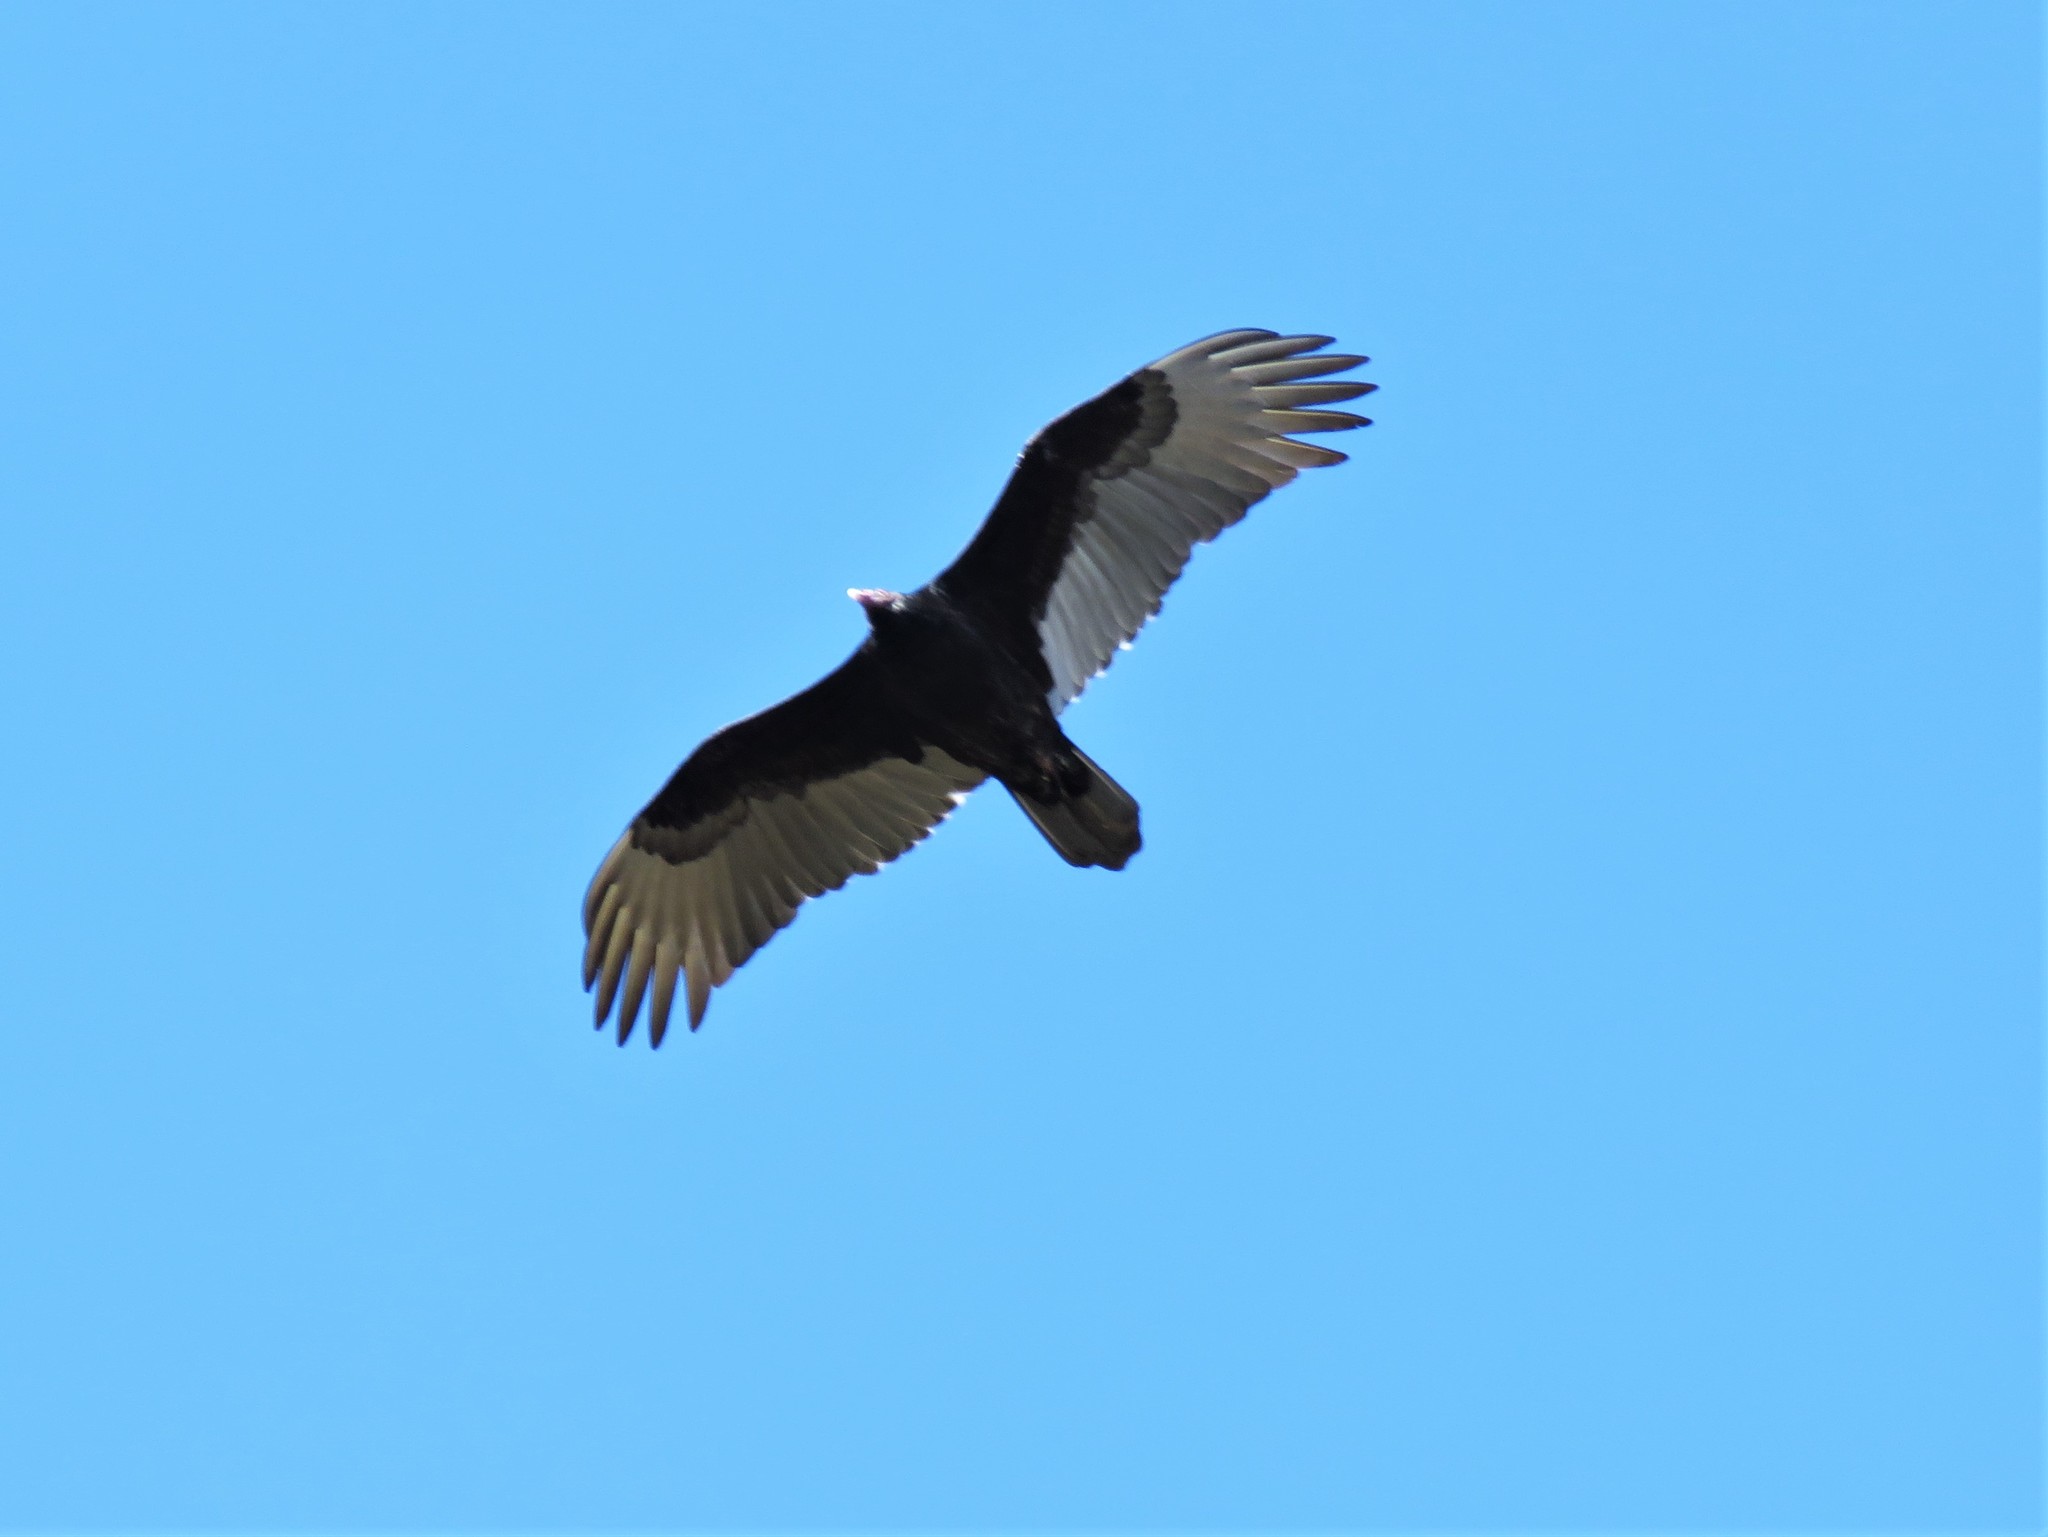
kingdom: Animalia
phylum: Chordata
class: Aves
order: Accipitriformes
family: Cathartidae
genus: Cathartes
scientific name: Cathartes aura
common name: Turkey vulture
